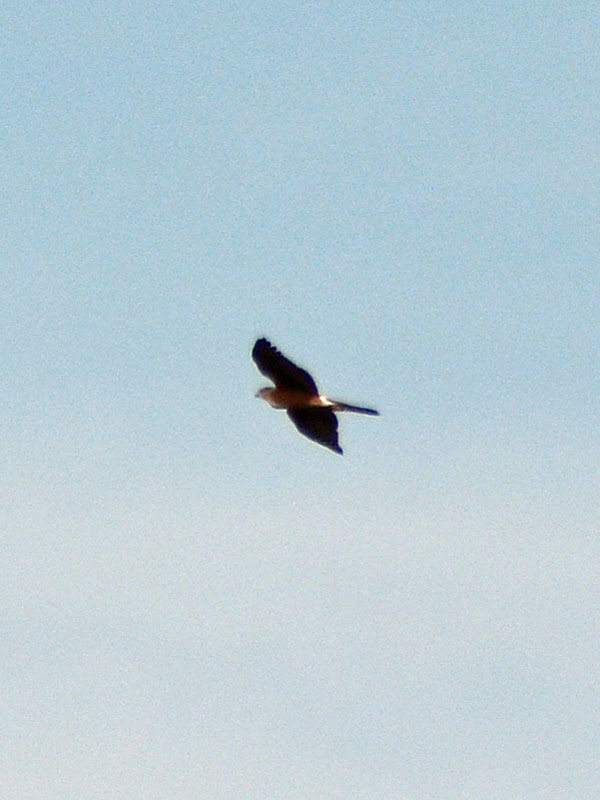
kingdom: Animalia
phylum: Chordata
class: Aves
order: Accipitriformes
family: Accipitridae
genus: Accipiter
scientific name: Accipiter cooperii
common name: Cooper's hawk
